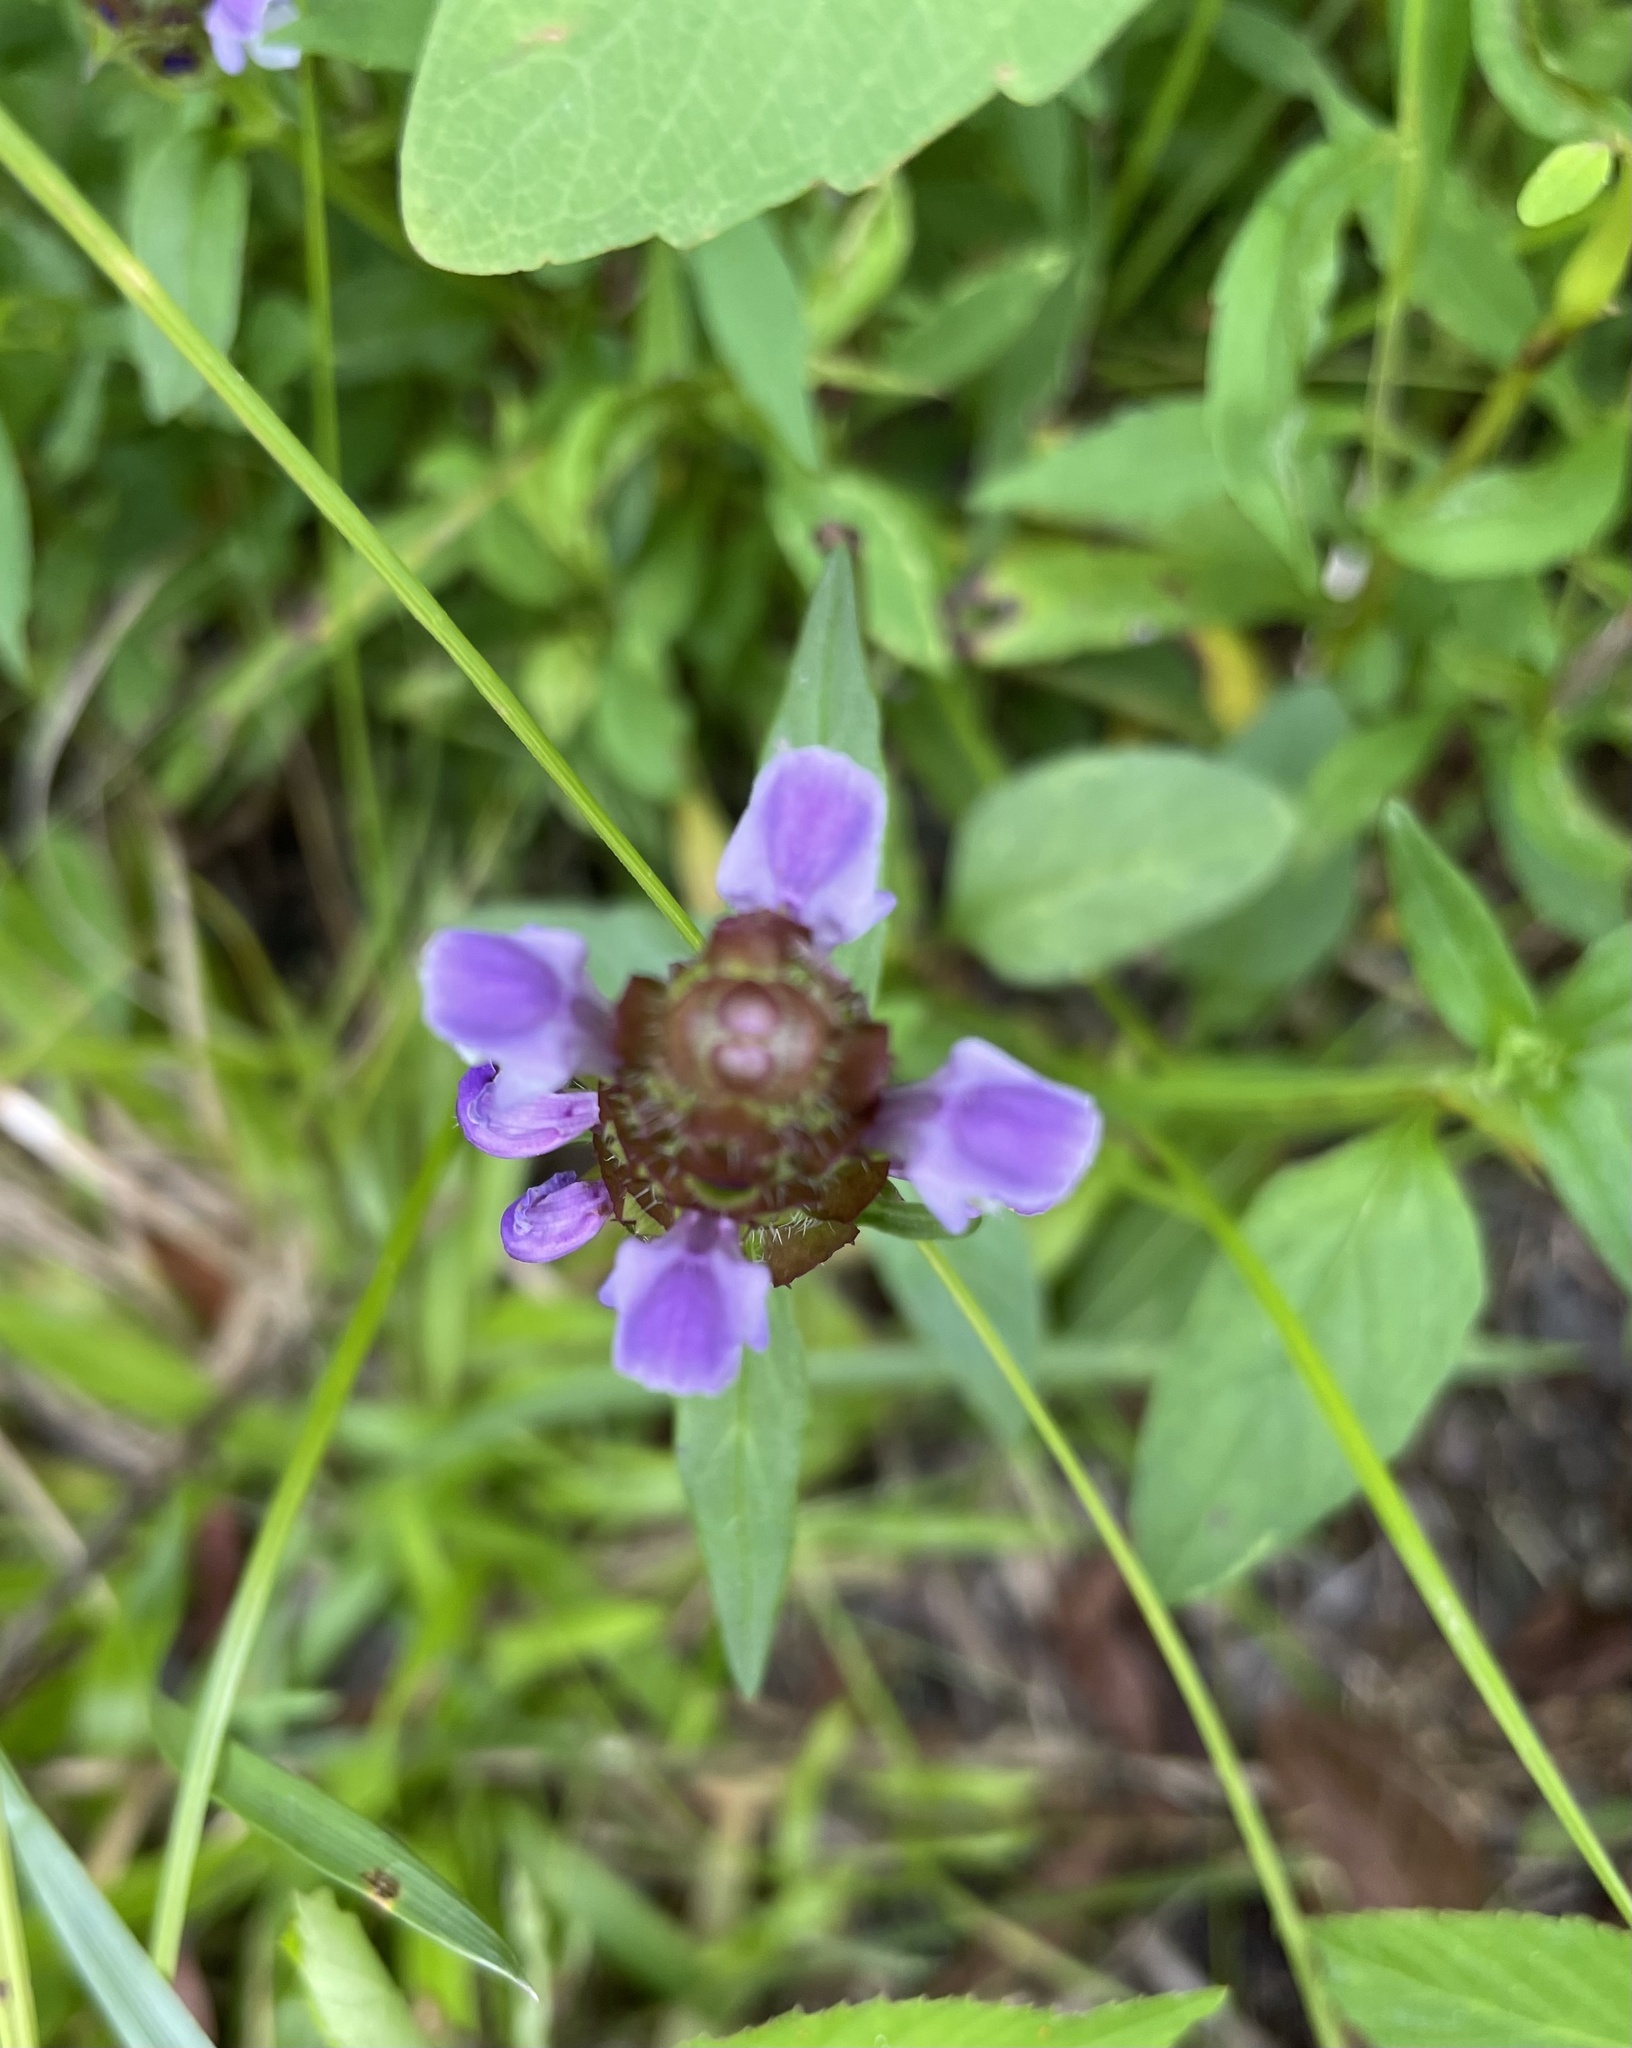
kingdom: Plantae
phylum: Tracheophyta
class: Magnoliopsida
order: Lamiales
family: Lamiaceae
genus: Prunella
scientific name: Prunella vulgaris
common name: Heal-all
